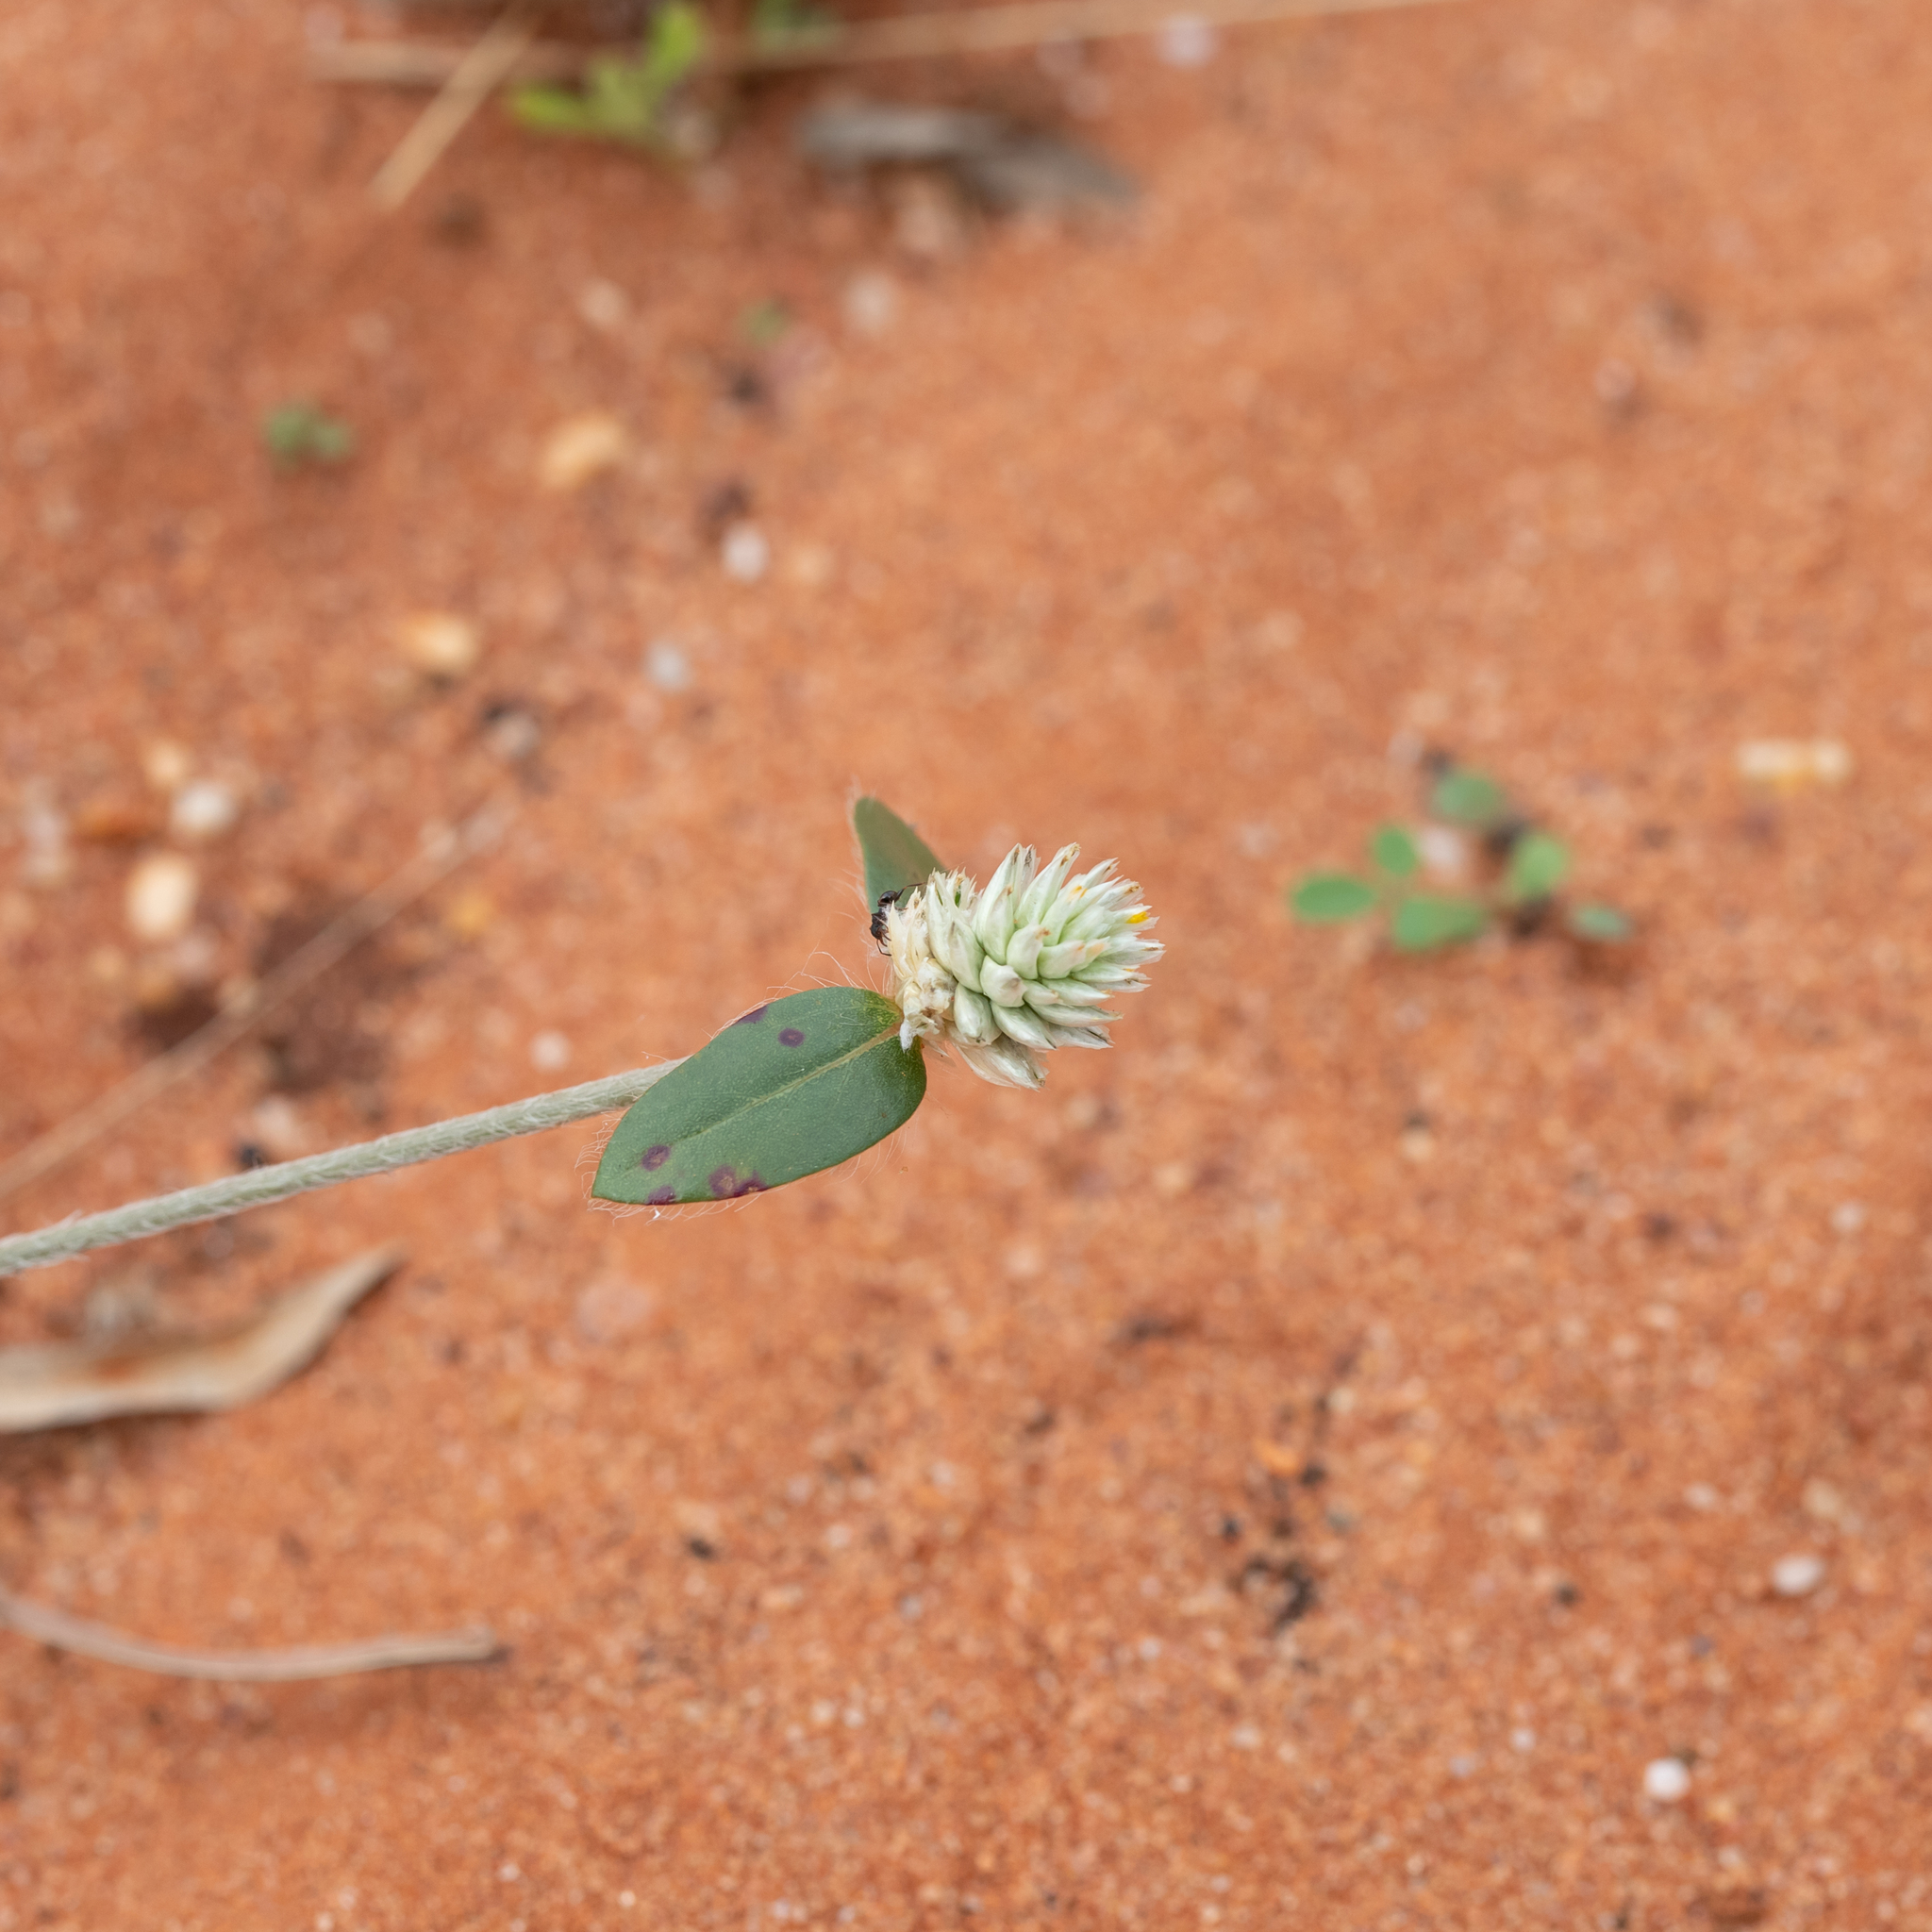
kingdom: Plantae
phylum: Tracheophyta
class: Magnoliopsida
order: Caryophyllales
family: Amaranthaceae
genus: Gomphrena
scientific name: Gomphrena celosioides
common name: Gomphrena-weed
